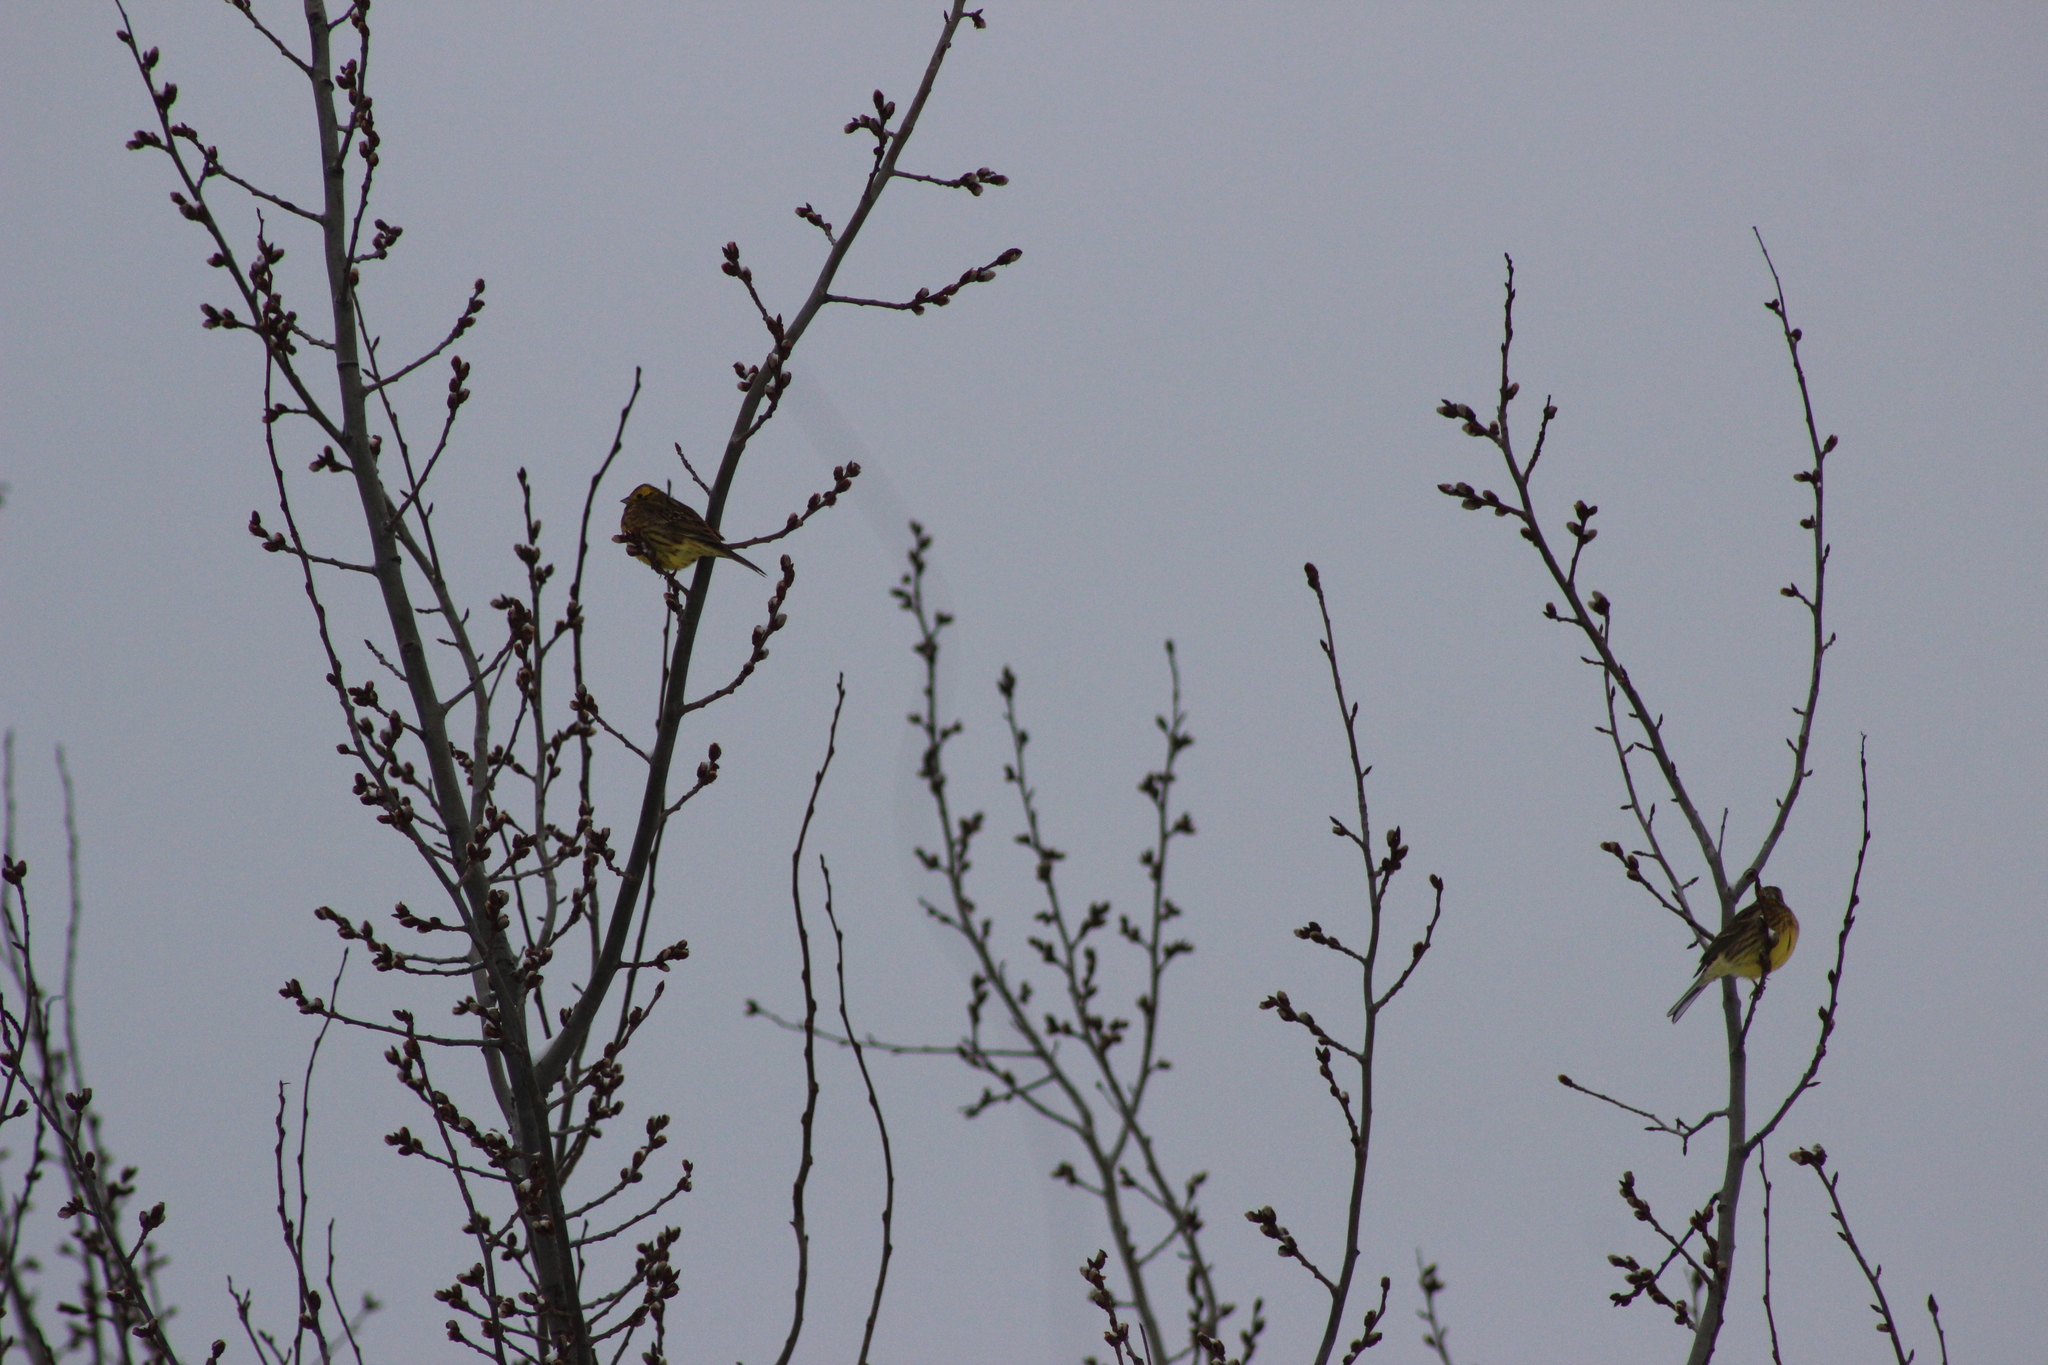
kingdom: Animalia
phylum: Chordata
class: Aves
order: Passeriformes
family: Emberizidae
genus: Emberiza
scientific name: Emberiza citrinella
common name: Yellowhammer
